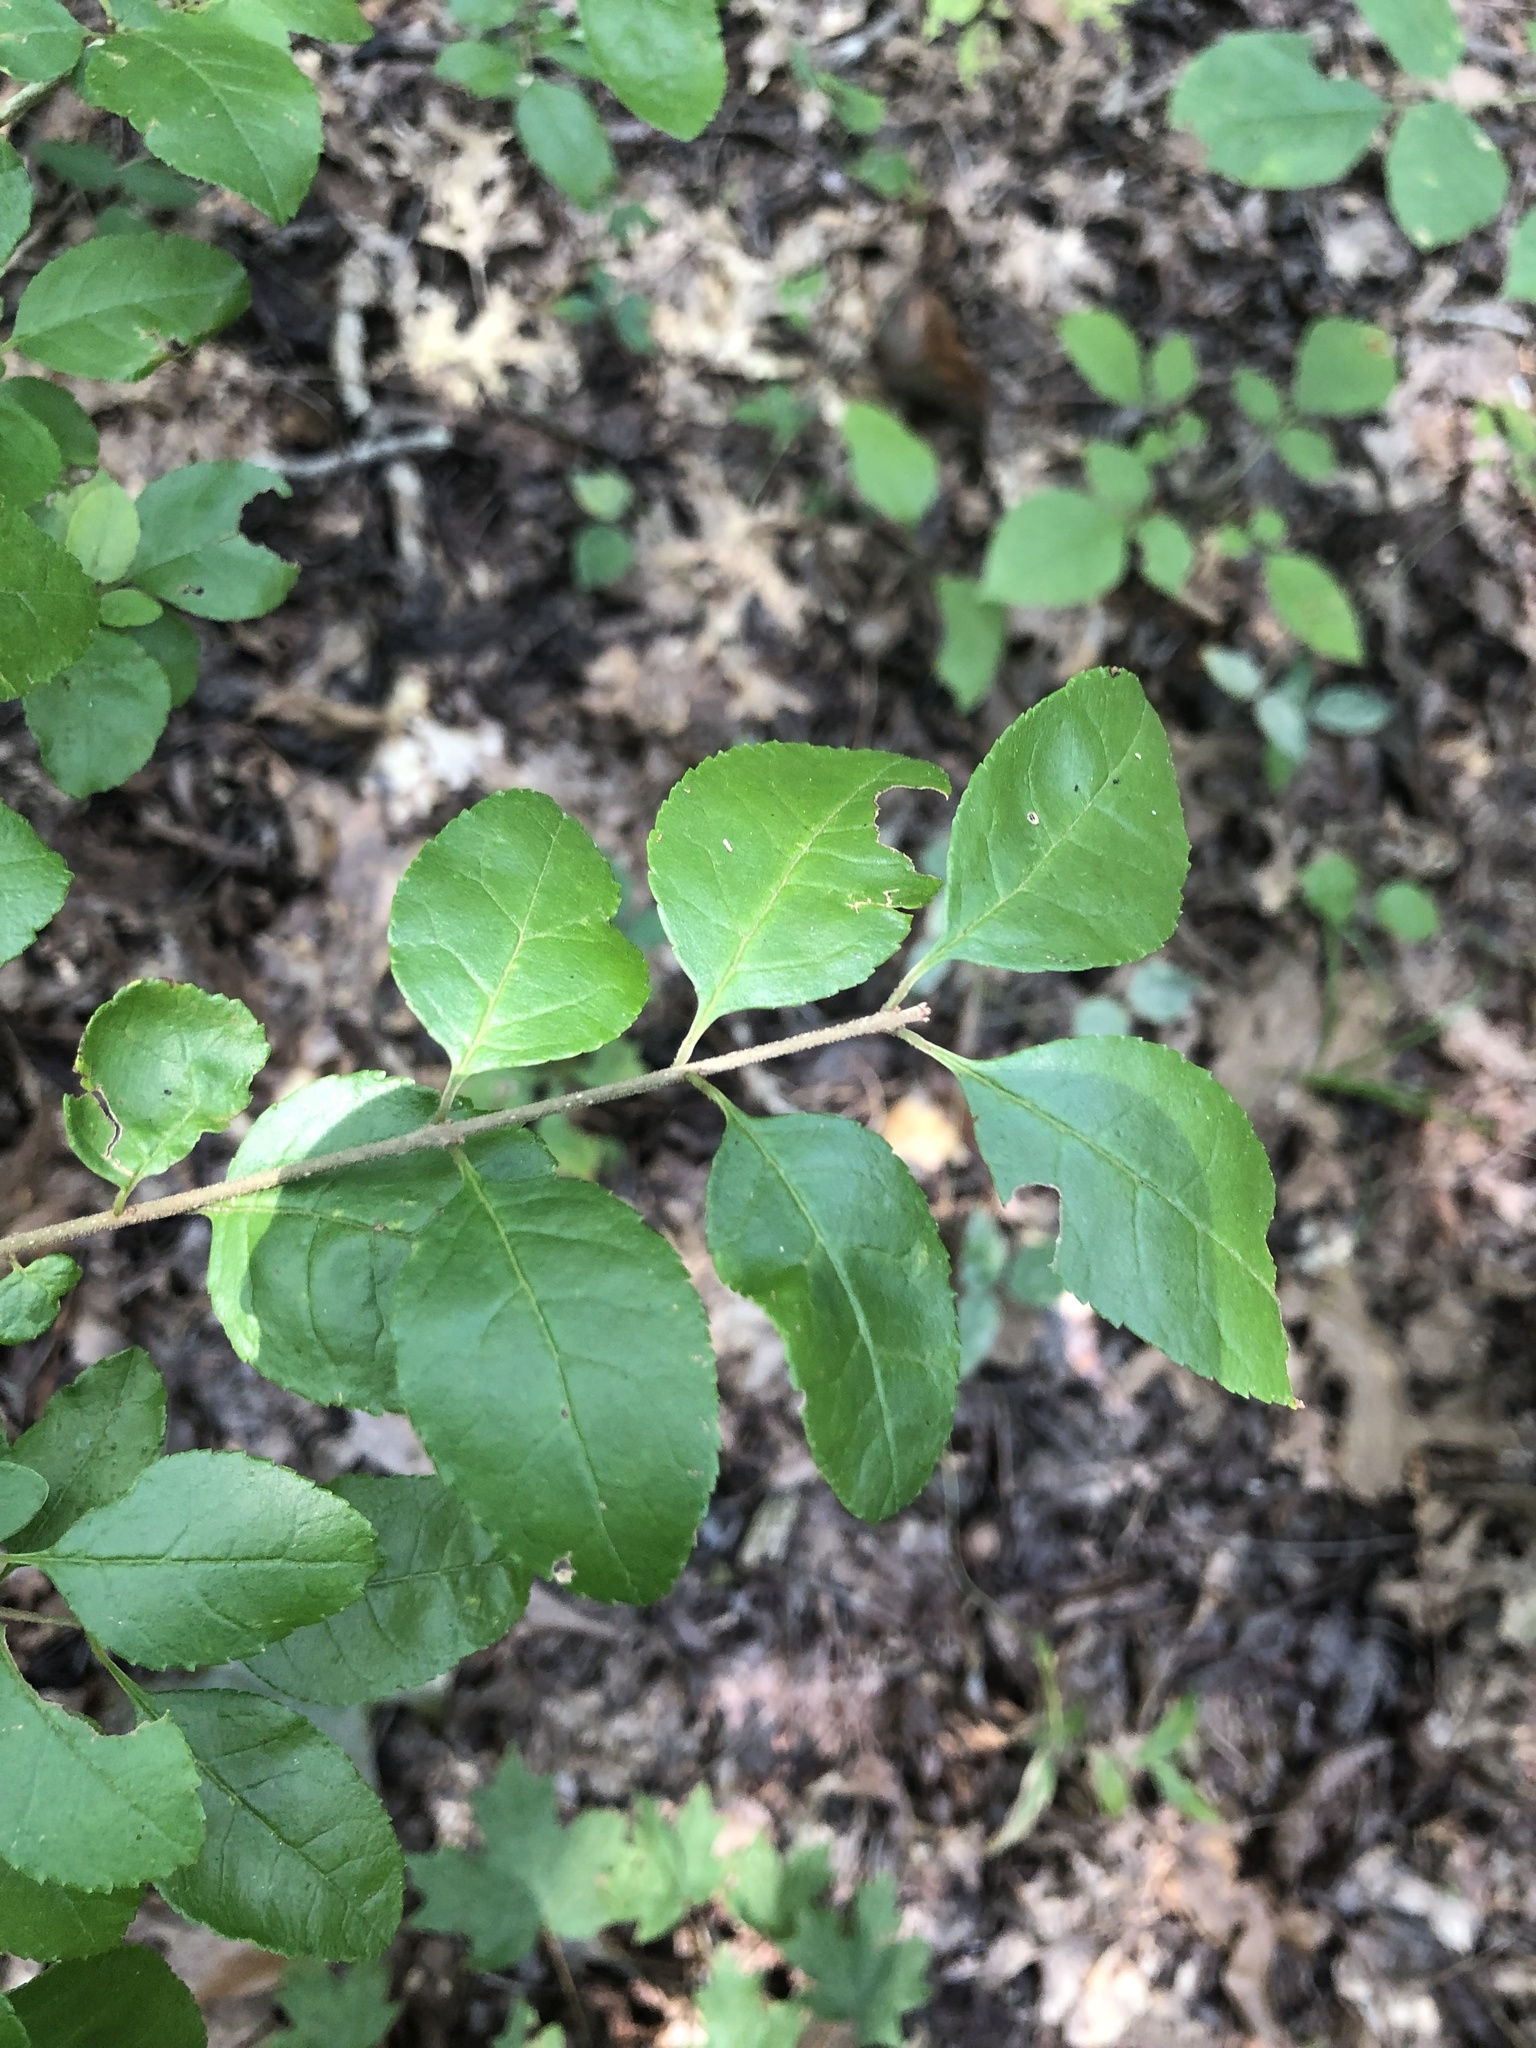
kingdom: Plantae
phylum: Tracheophyta
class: Magnoliopsida
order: Lamiales
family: Oleaceae
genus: Forestiera
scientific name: Forestiera ligustrina
